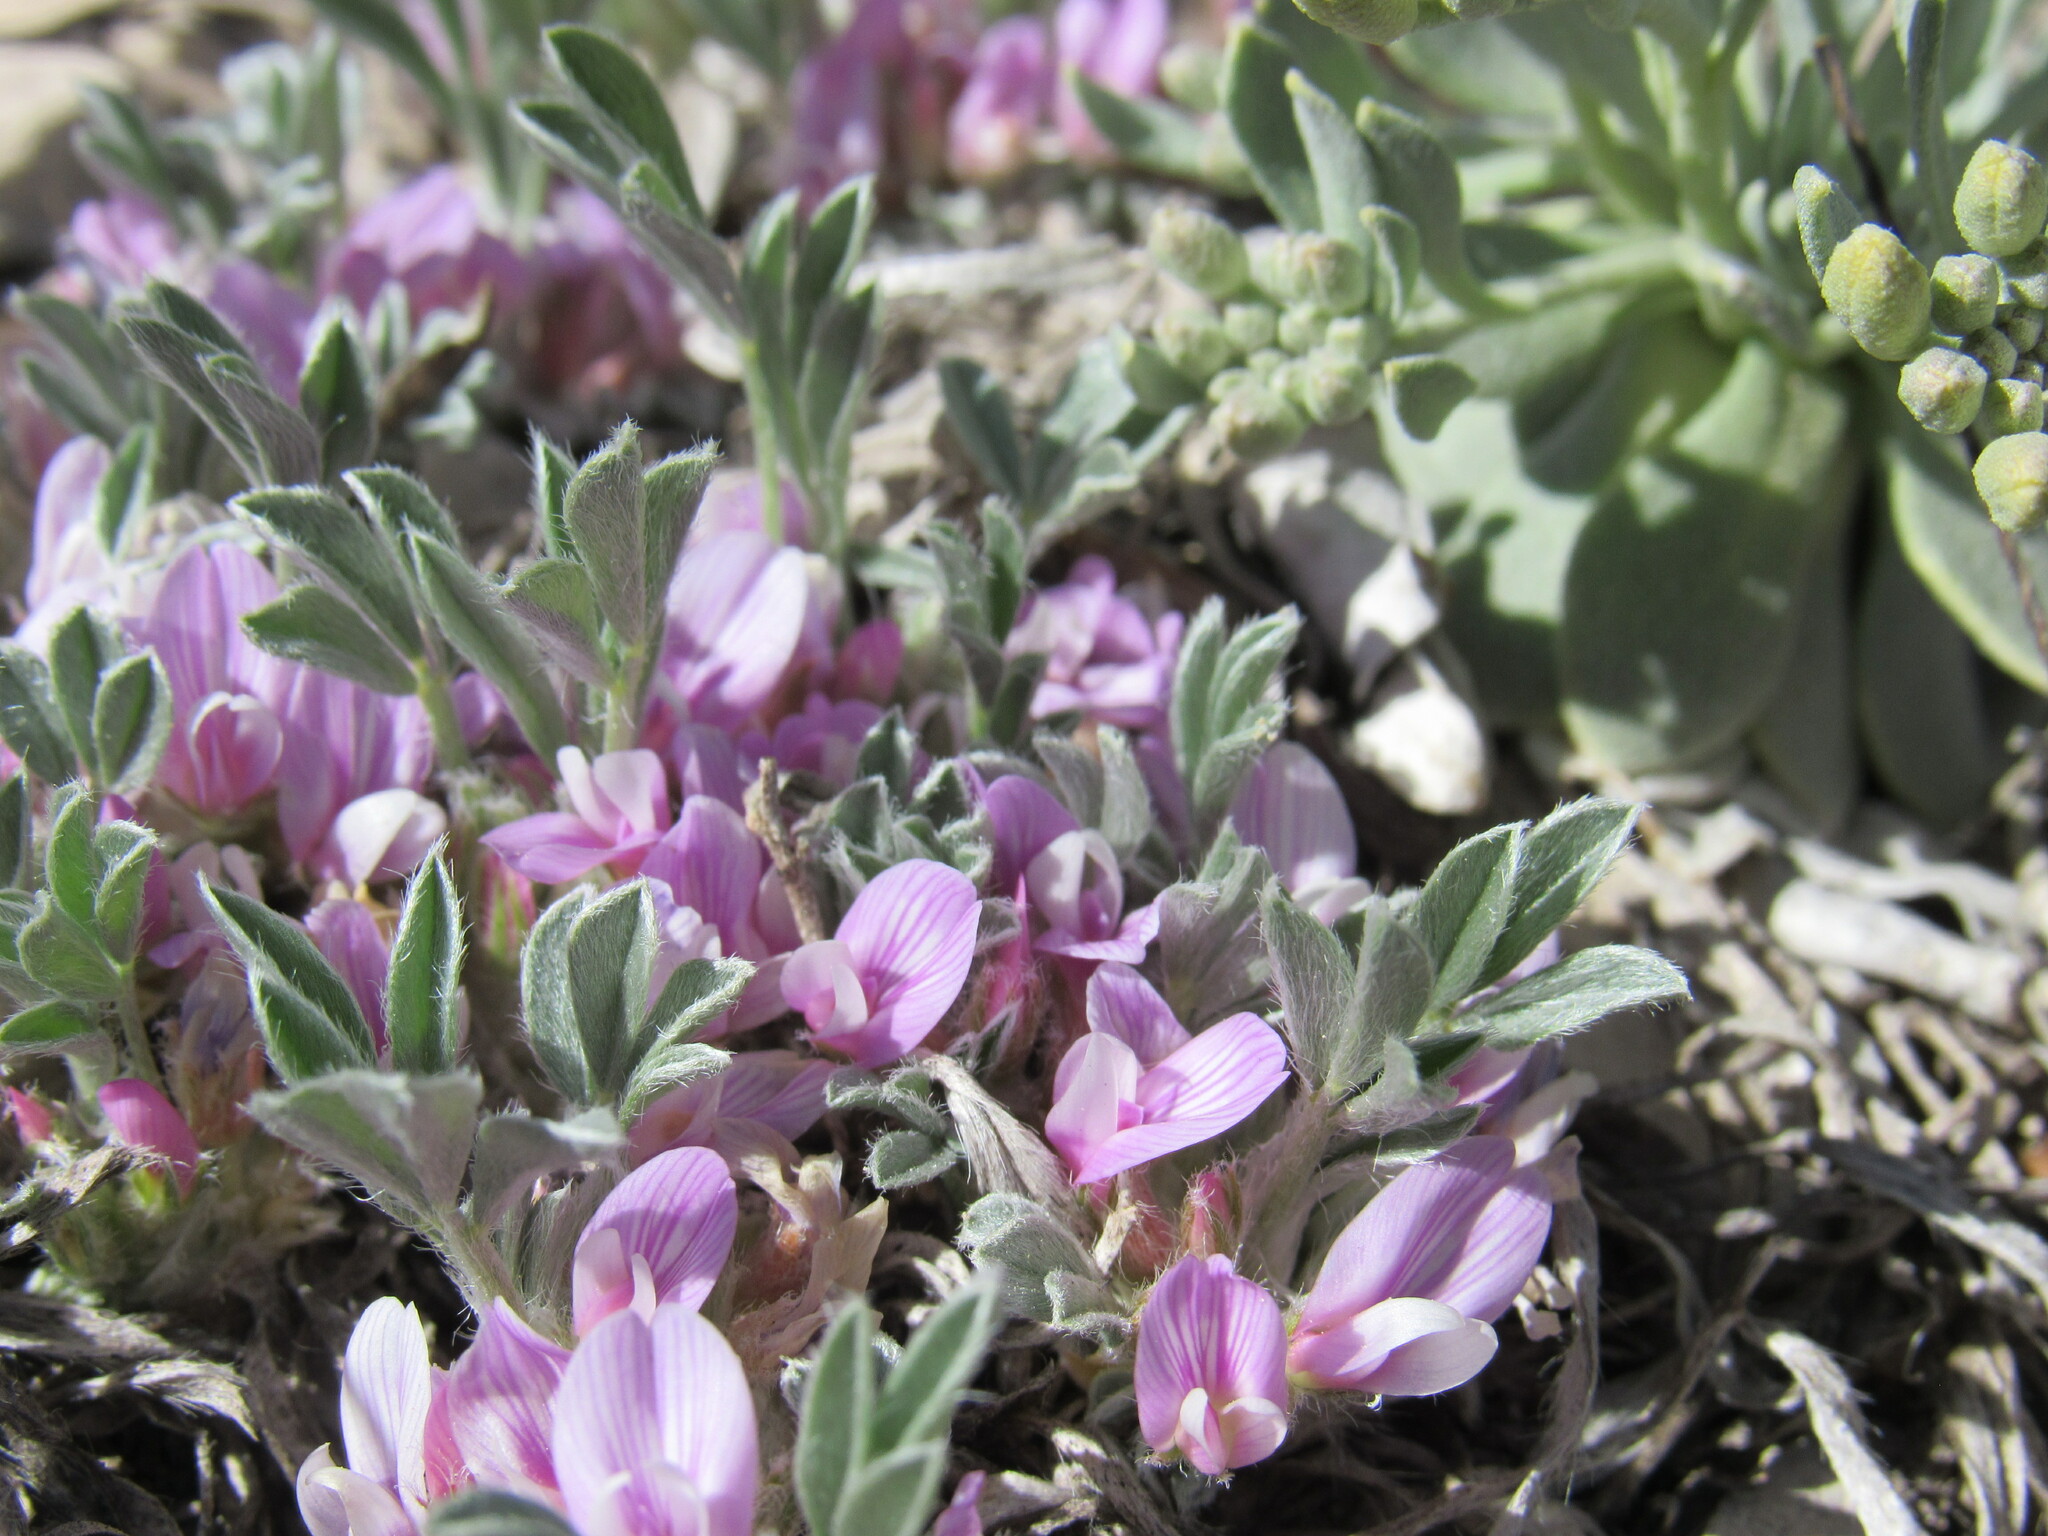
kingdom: Plantae
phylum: Tracheophyta
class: Magnoliopsida
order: Fabales
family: Fabaceae
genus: Astragalus
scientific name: Astragalus tridactylicus
